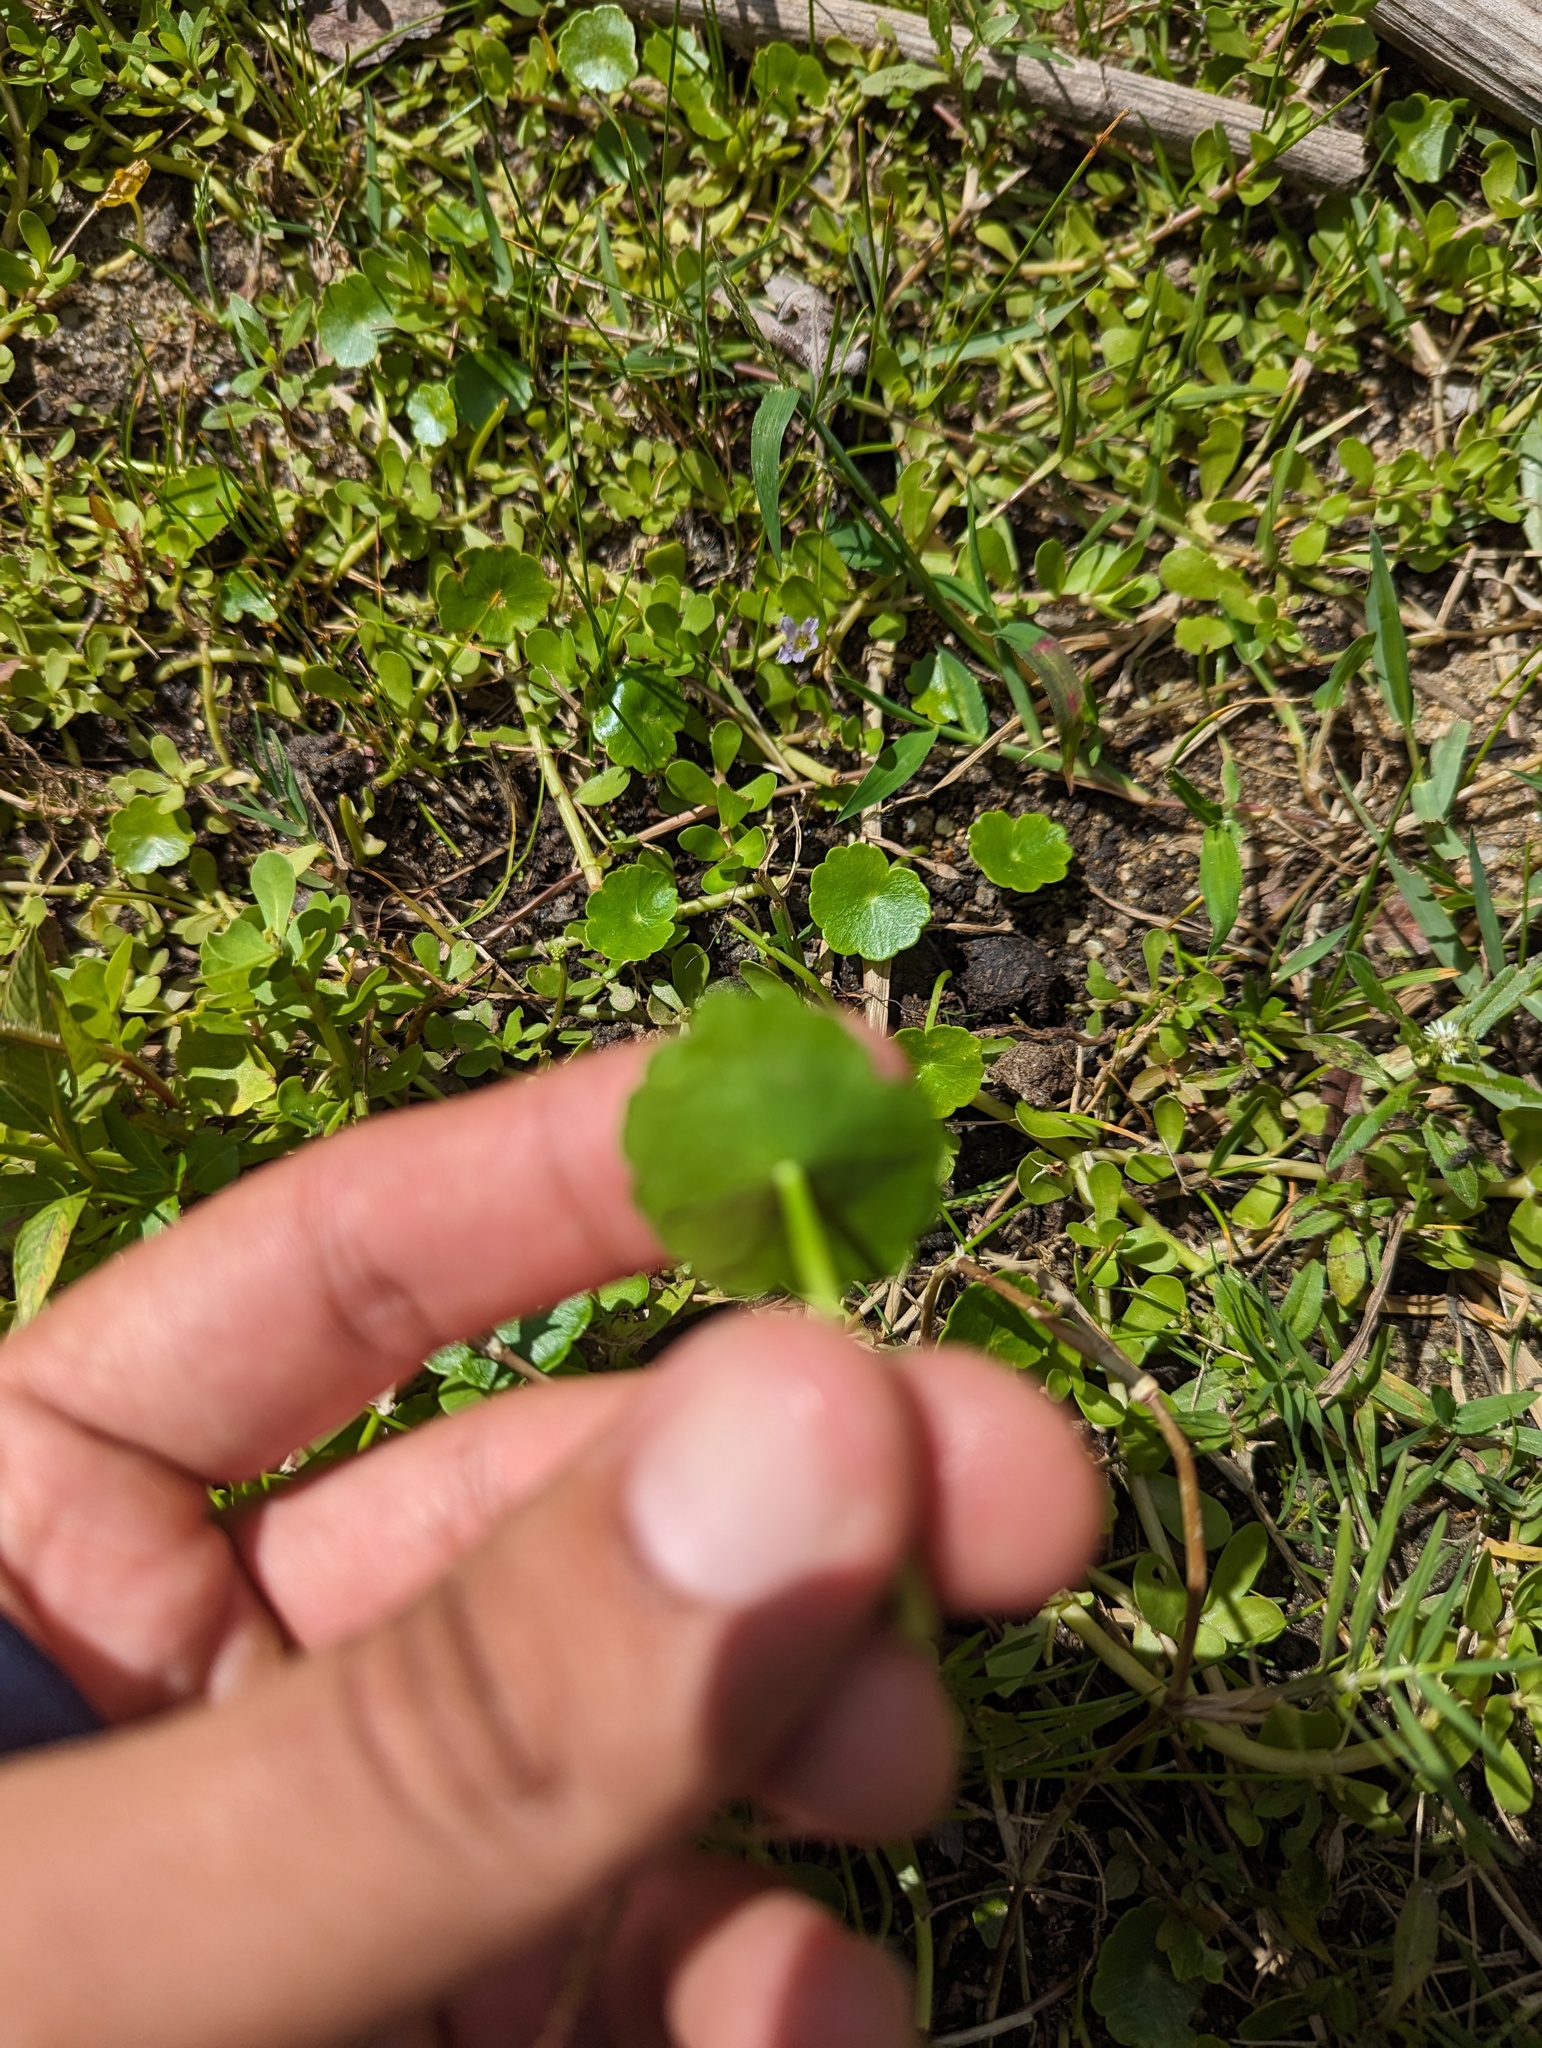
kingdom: Plantae
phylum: Tracheophyta
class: Magnoliopsida
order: Lamiales
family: Plantaginaceae
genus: Bacopa
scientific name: Bacopa monnieri
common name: Indian-pennywort
